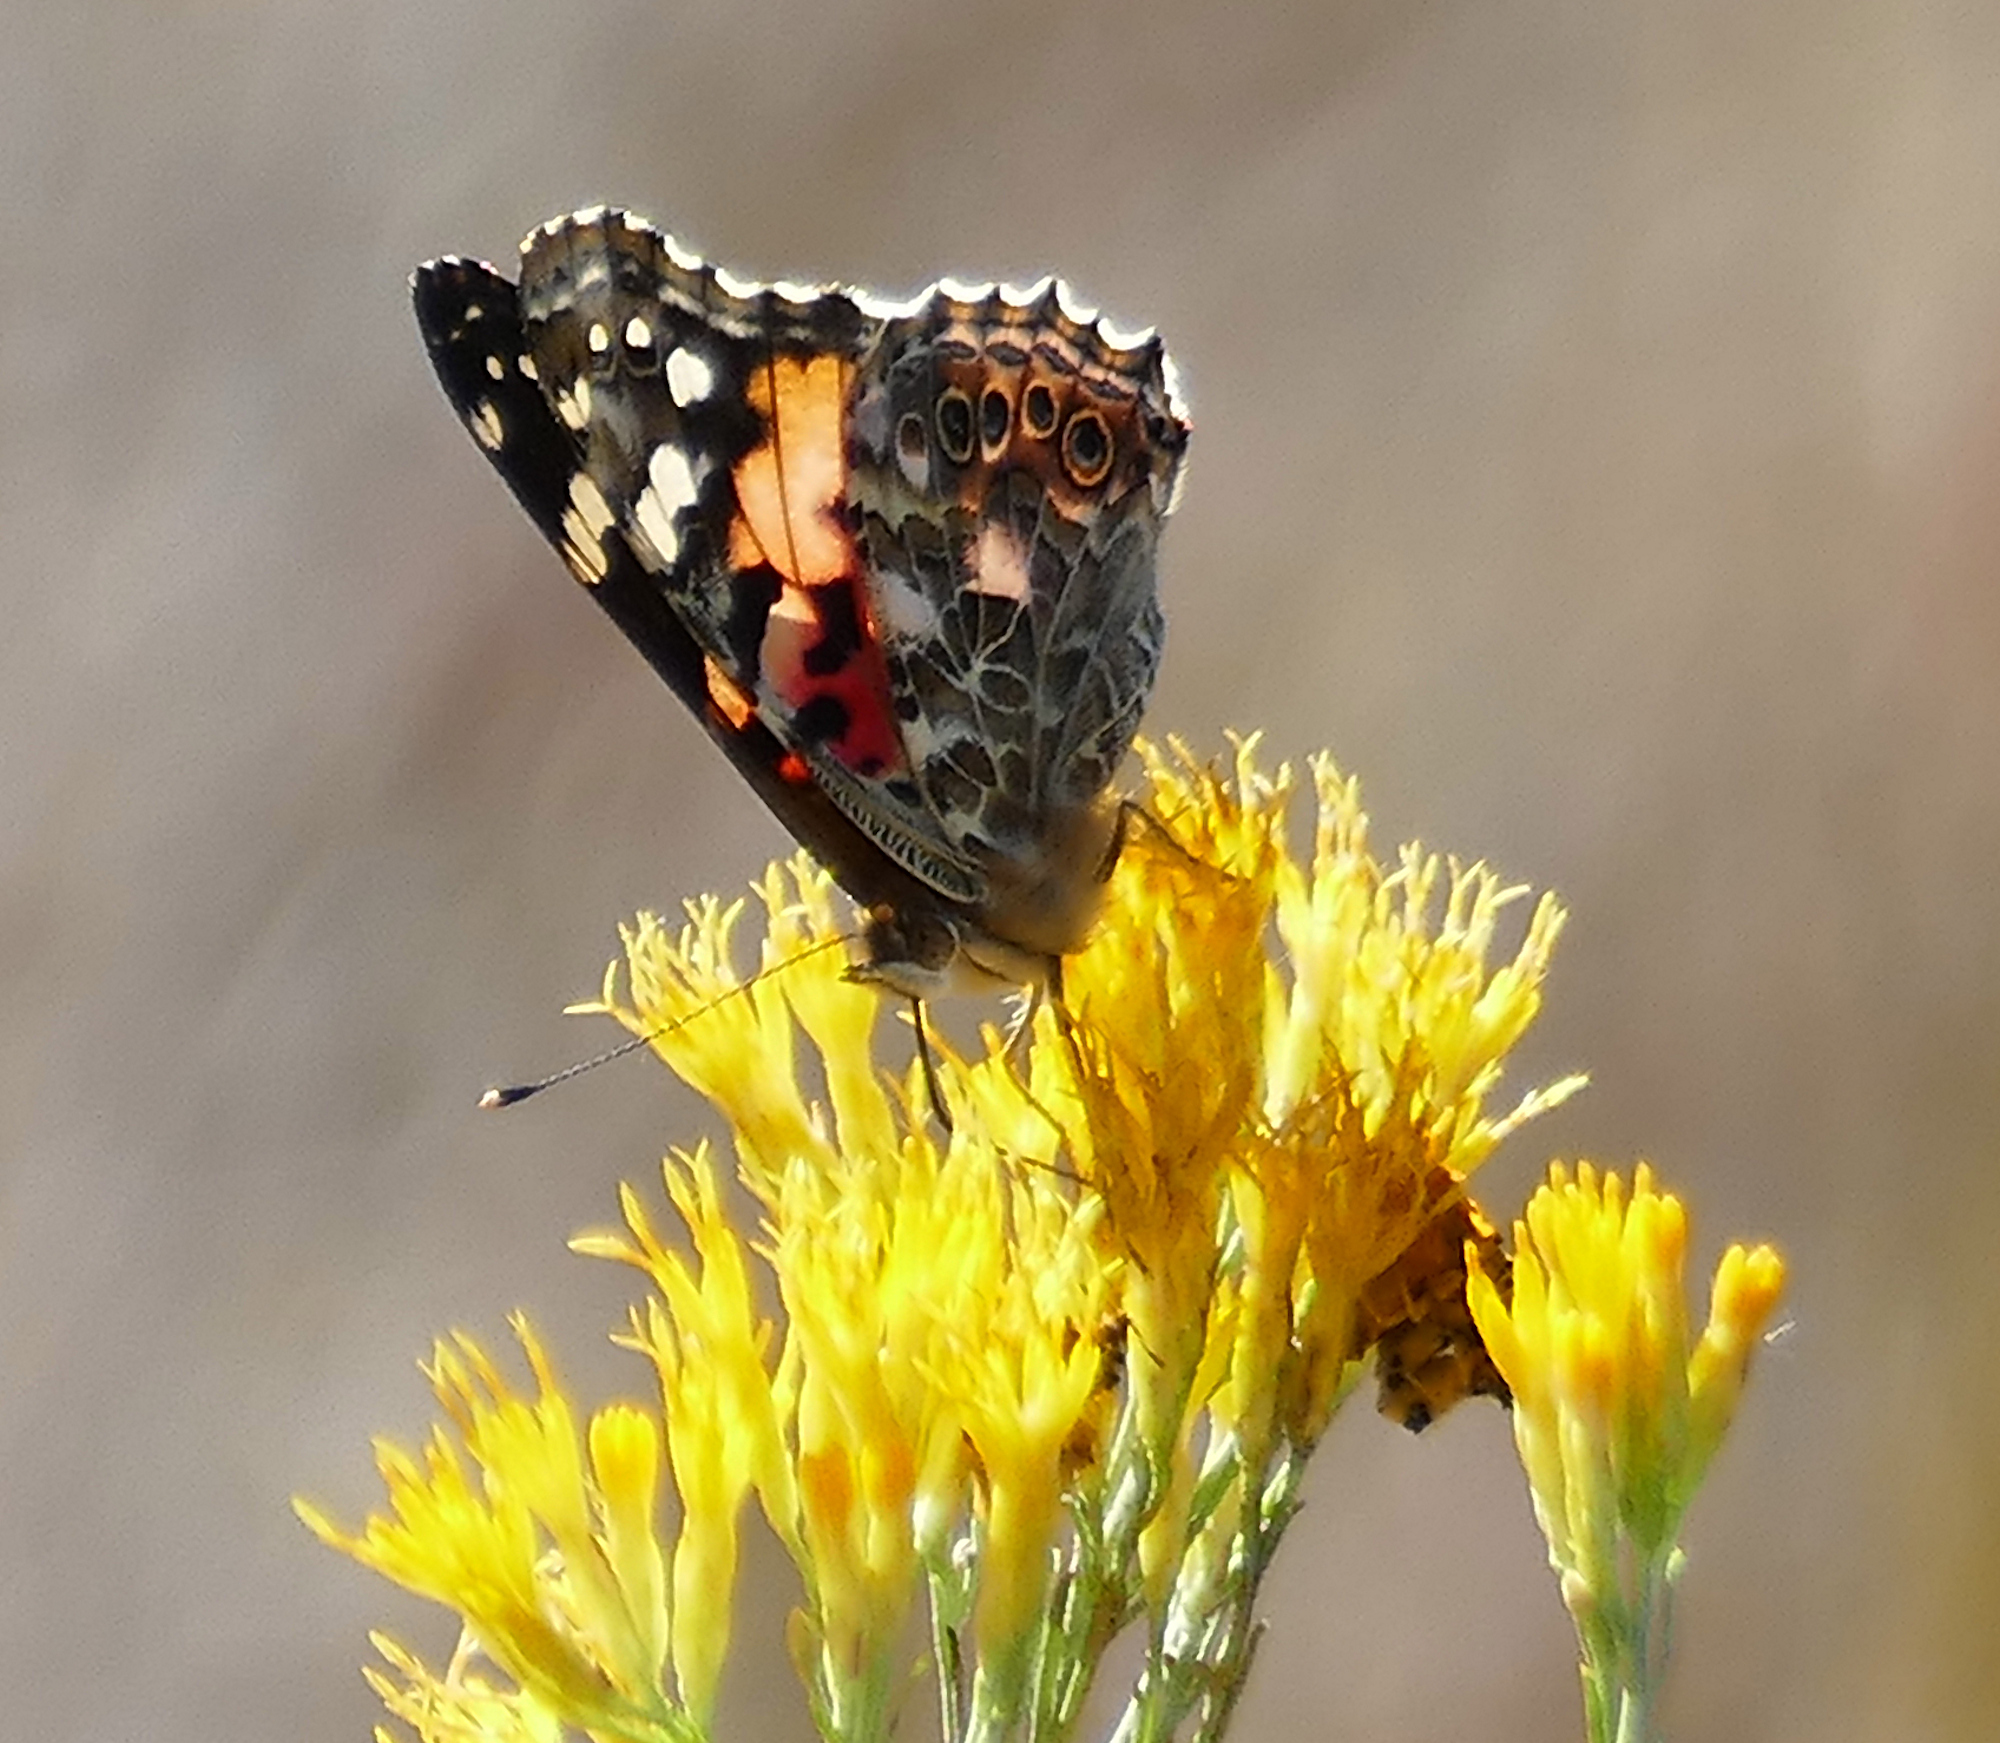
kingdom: Animalia
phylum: Arthropoda
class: Insecta
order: Lepidoptera
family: Nymphalidae
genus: Vanessa
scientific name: Vanessa cardui
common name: Painted lady
